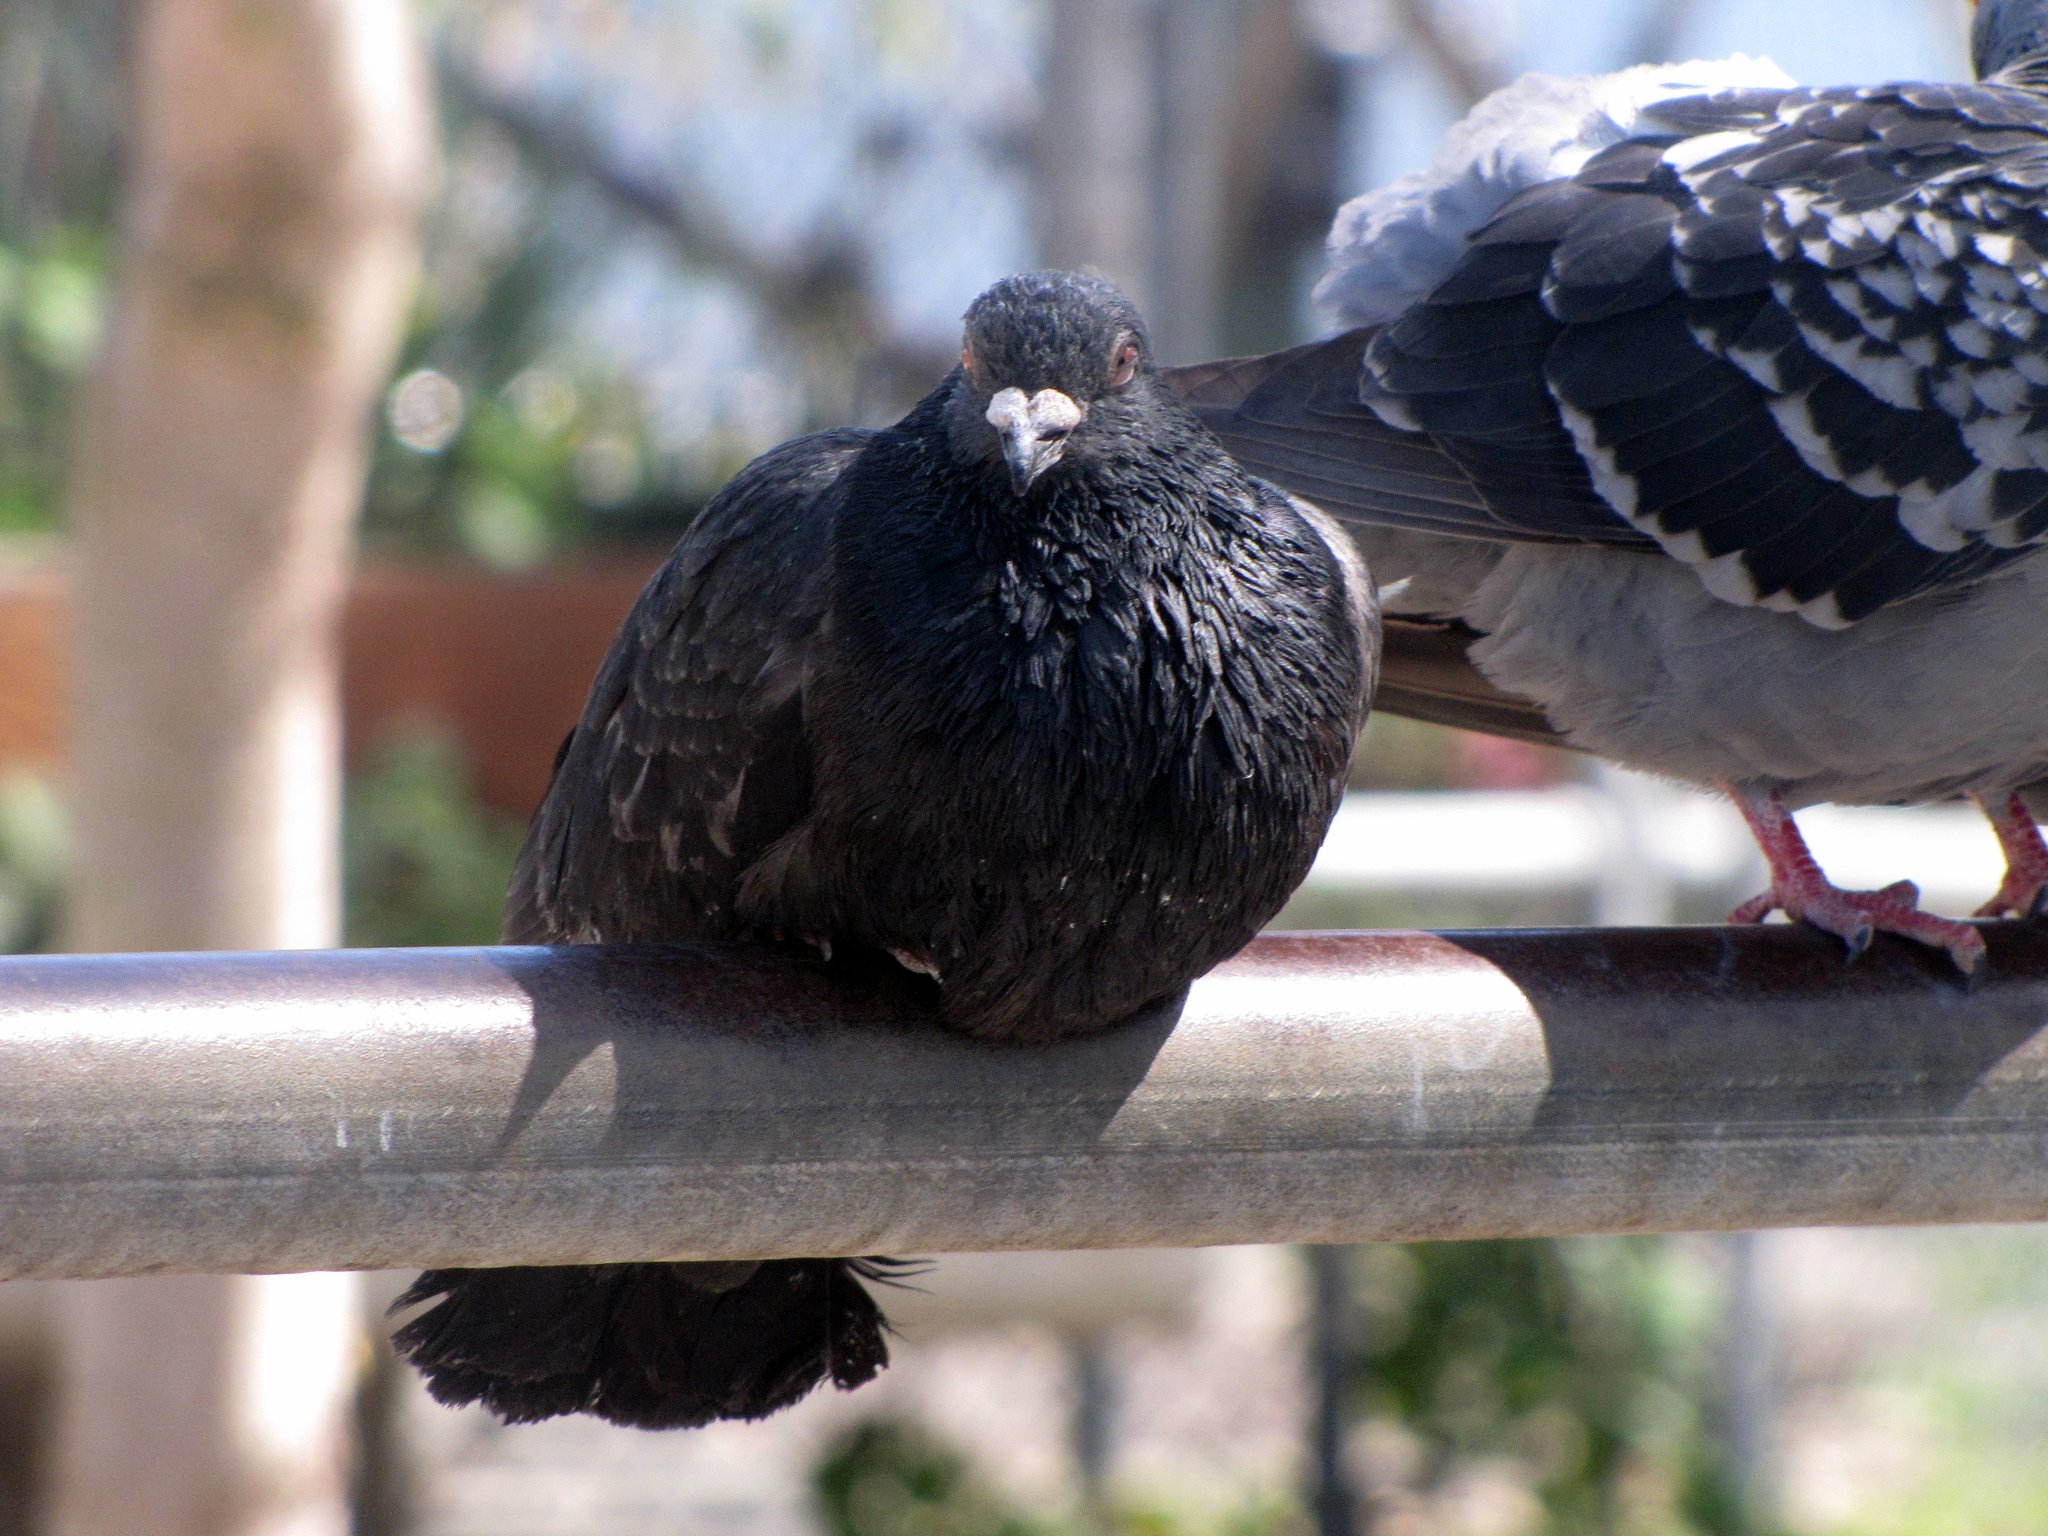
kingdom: Animalia
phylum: Chordata
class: Aves
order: Columbiformes
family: Columbidae
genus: Columba
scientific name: Columba livia
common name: Rock pigeon
